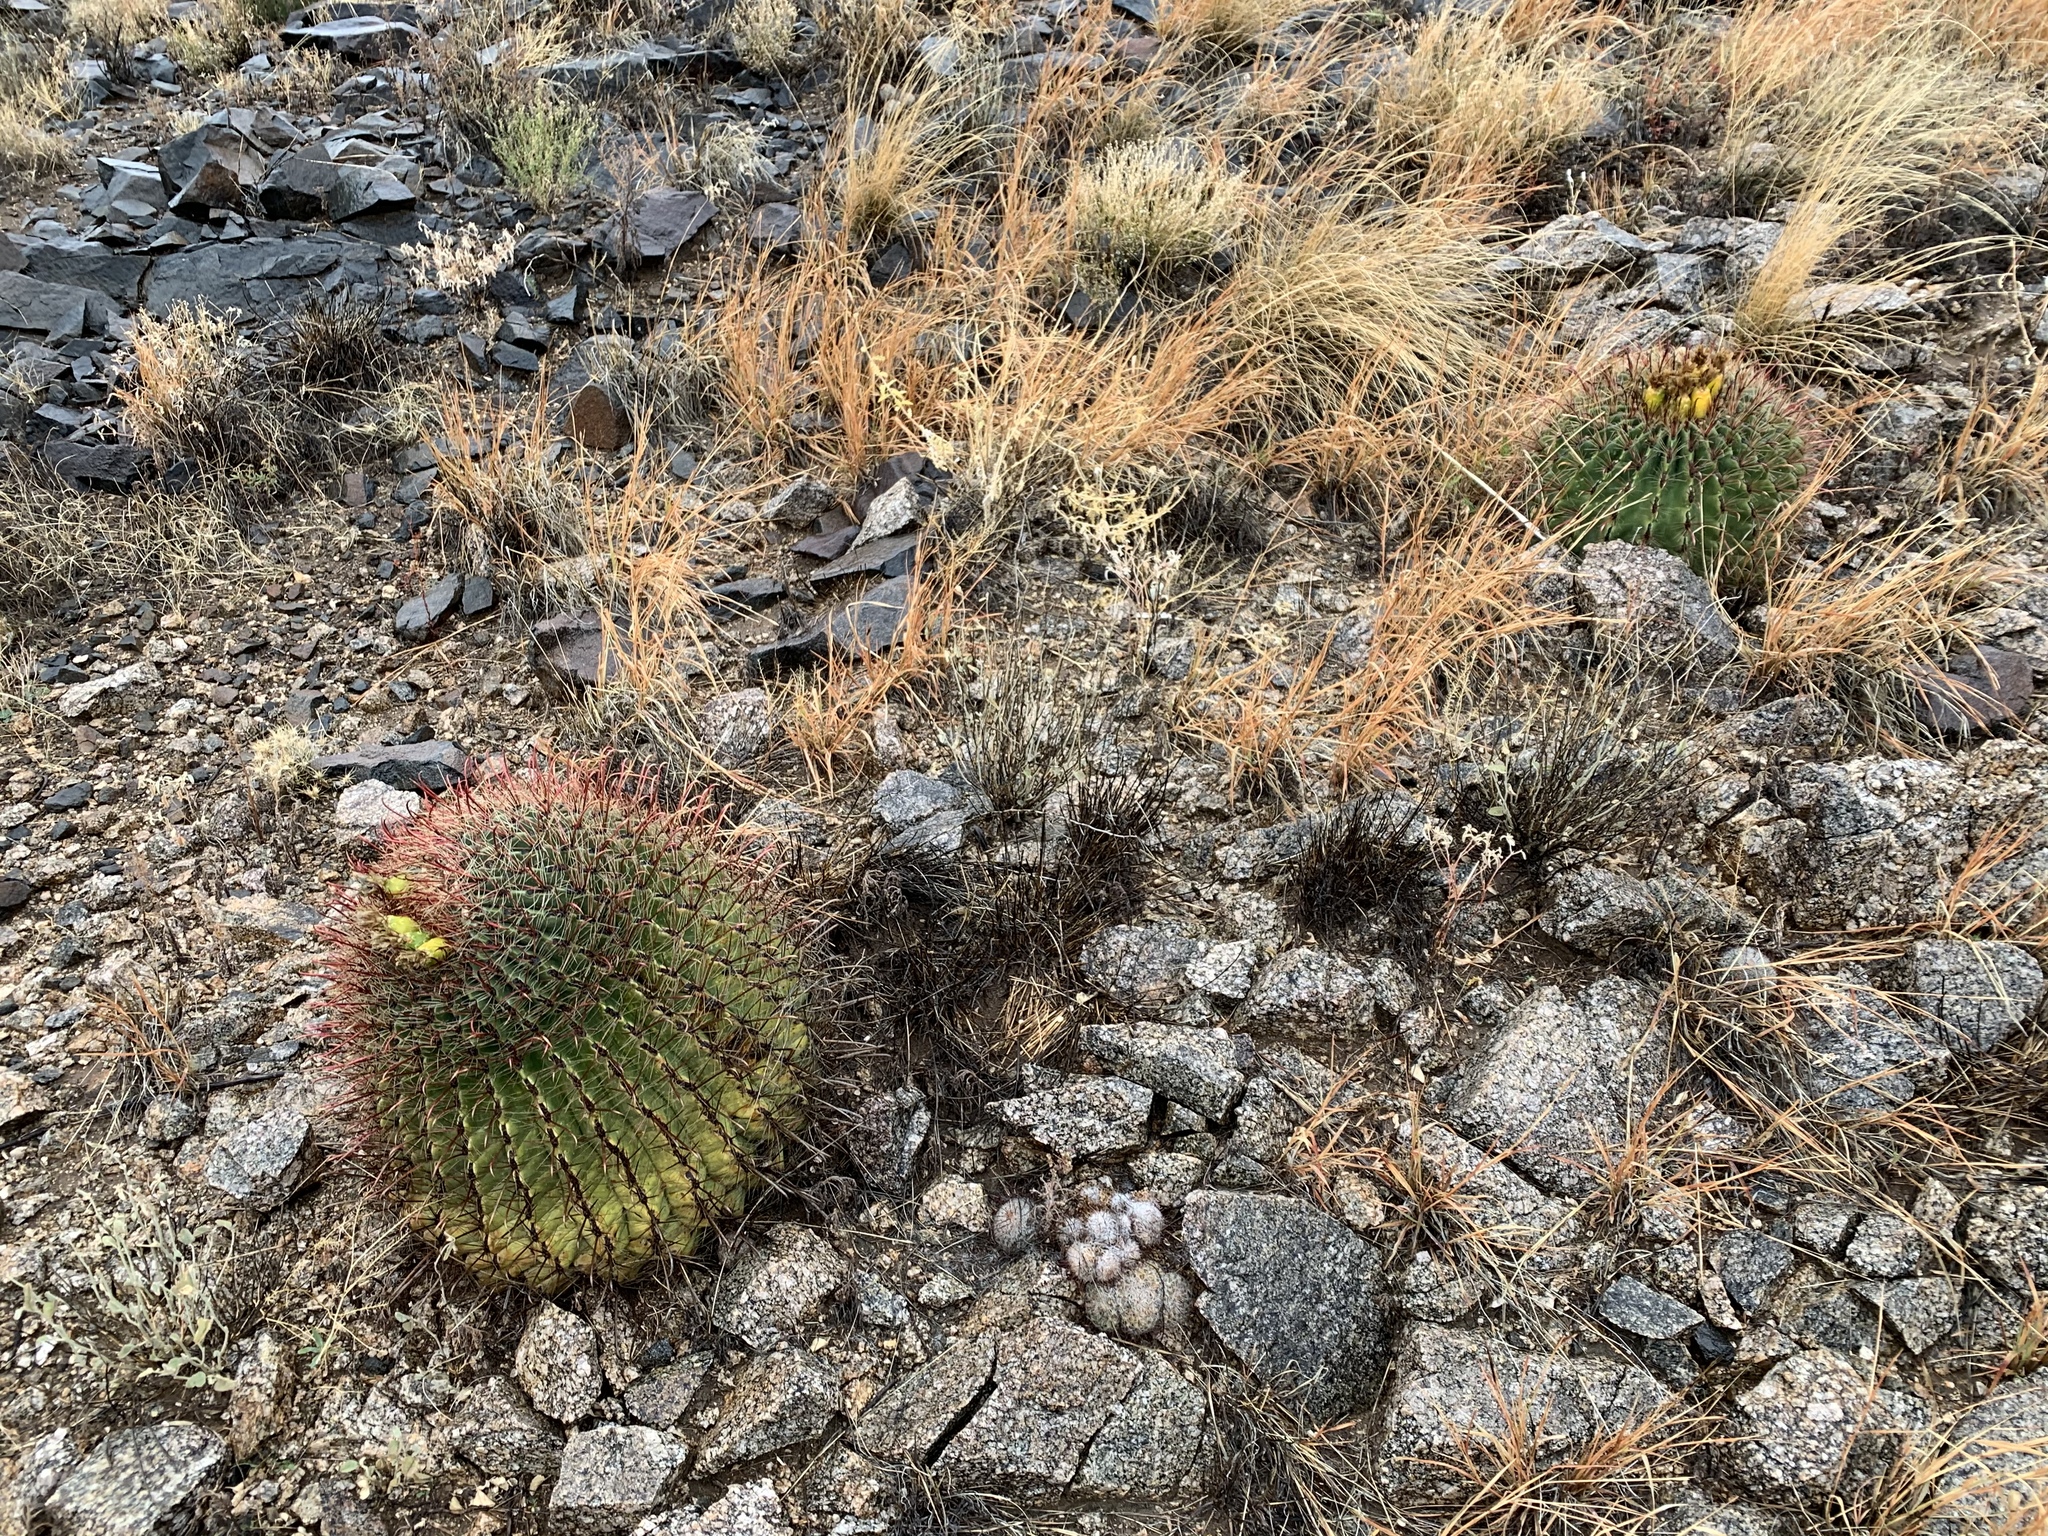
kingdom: Plantae
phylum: Tracheophyta
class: Magnoliopsida
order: Caryophyllales
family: Cactaceae
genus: Ferocactus
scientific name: Ferocactus wislizeni
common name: Candy barrel cactus
